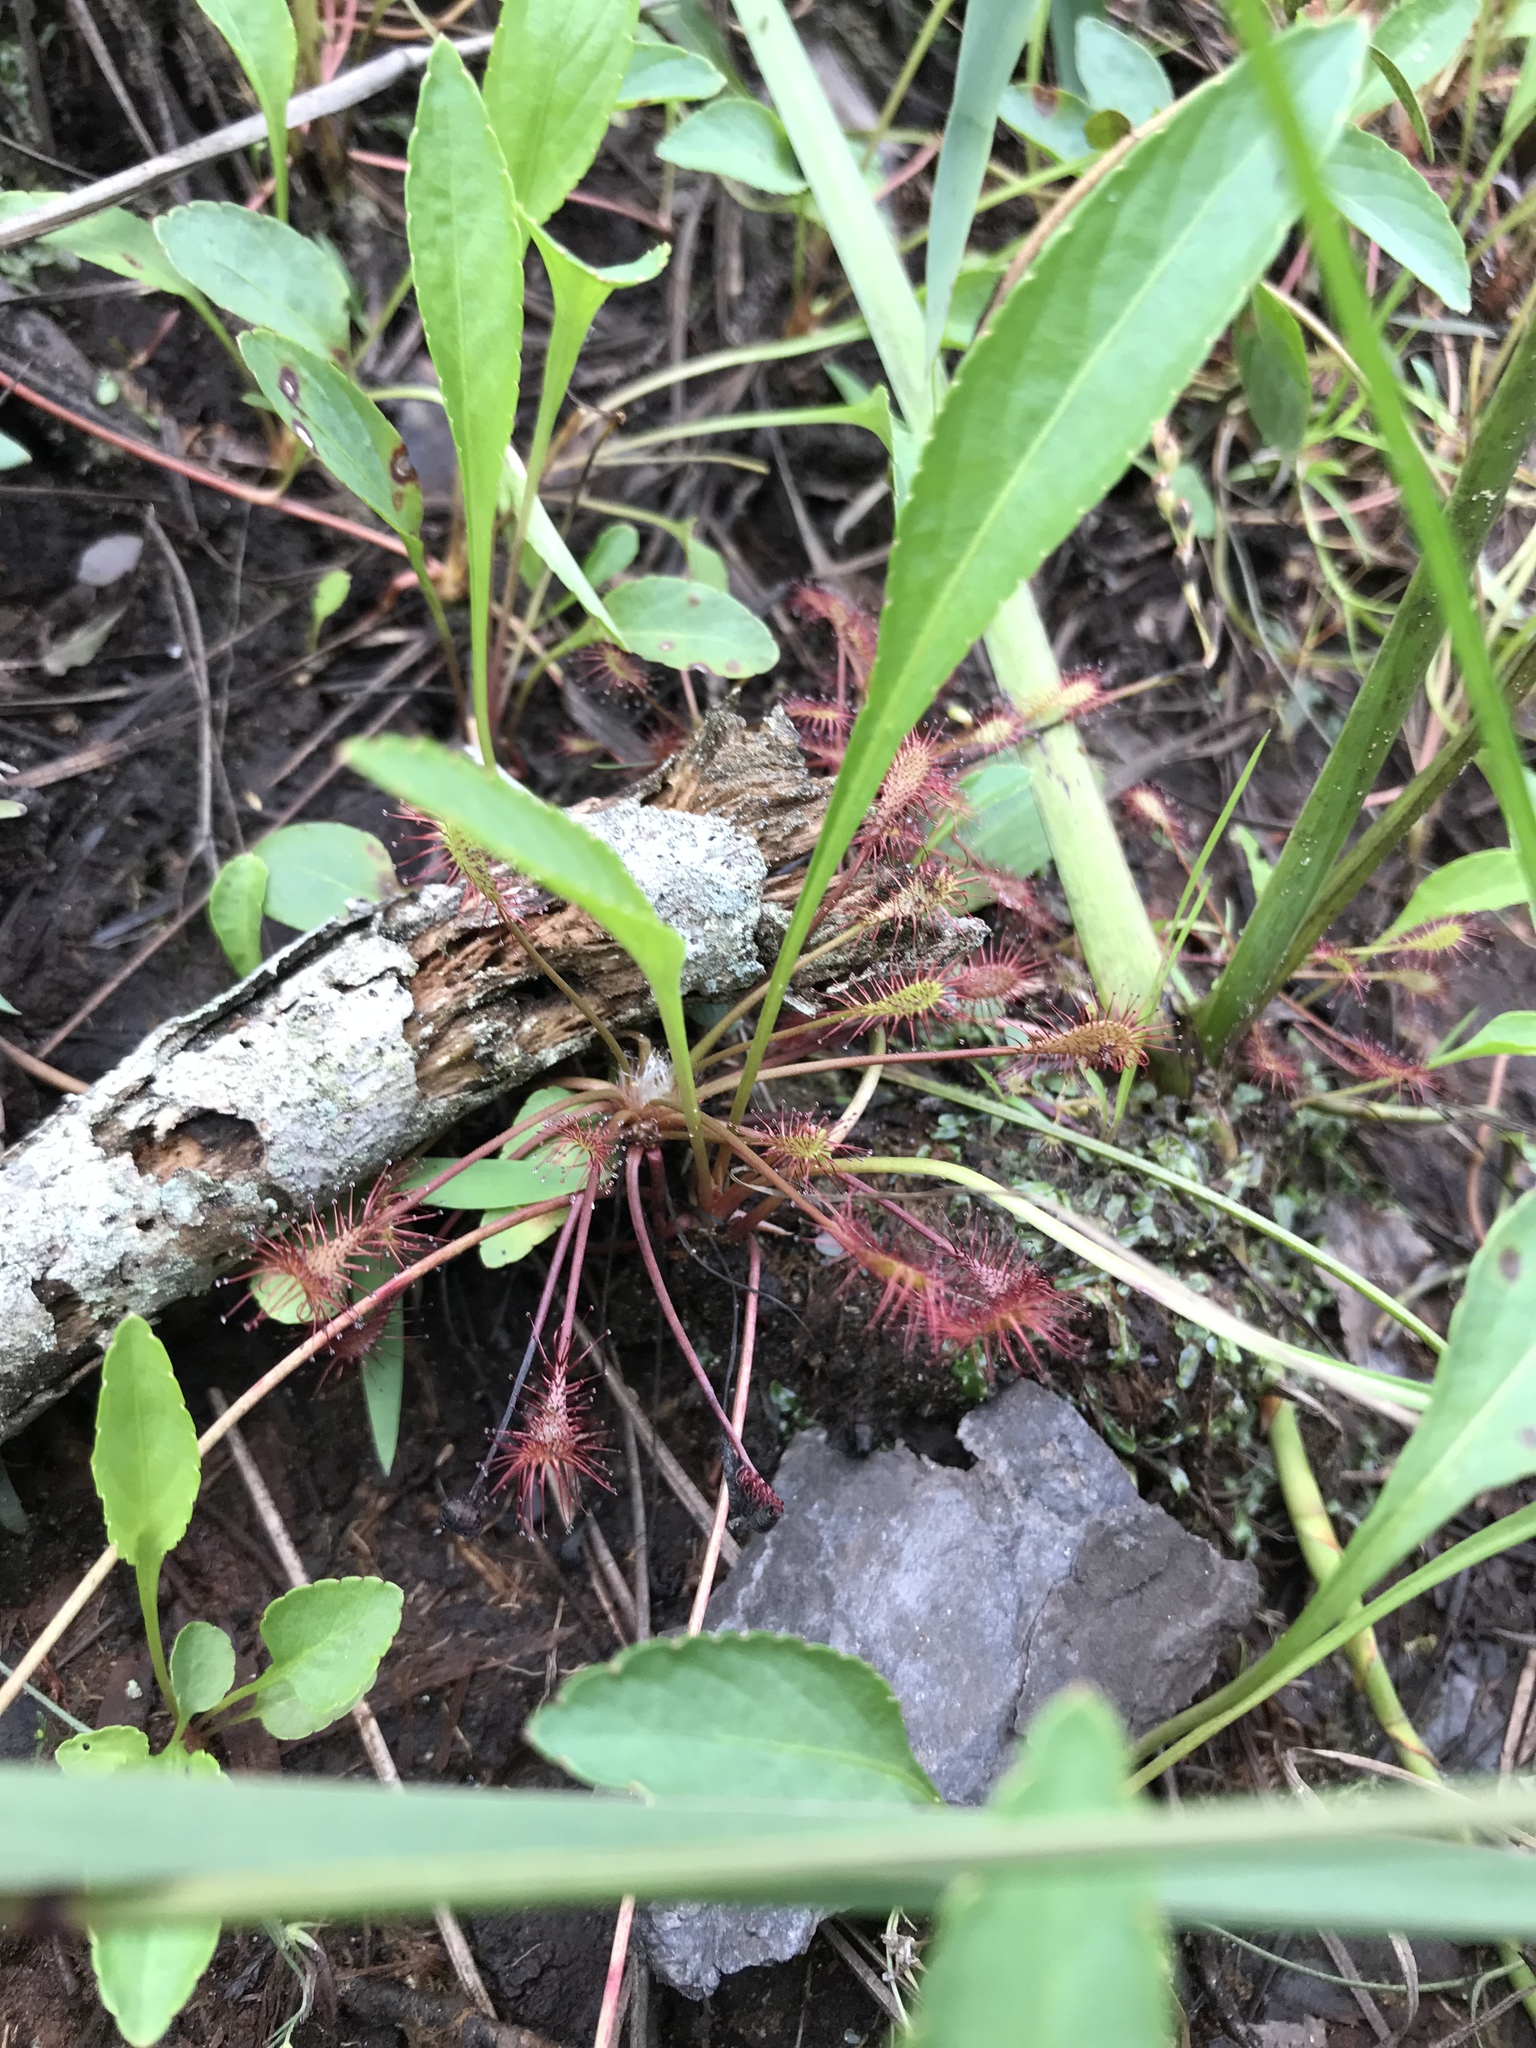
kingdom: Plantae
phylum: Tracheophyta
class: Magnoliopsida
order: Caryophyllales
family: Droseraceae
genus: Drosera
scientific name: Drosera intermedia
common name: Oblong-leaved sundew
